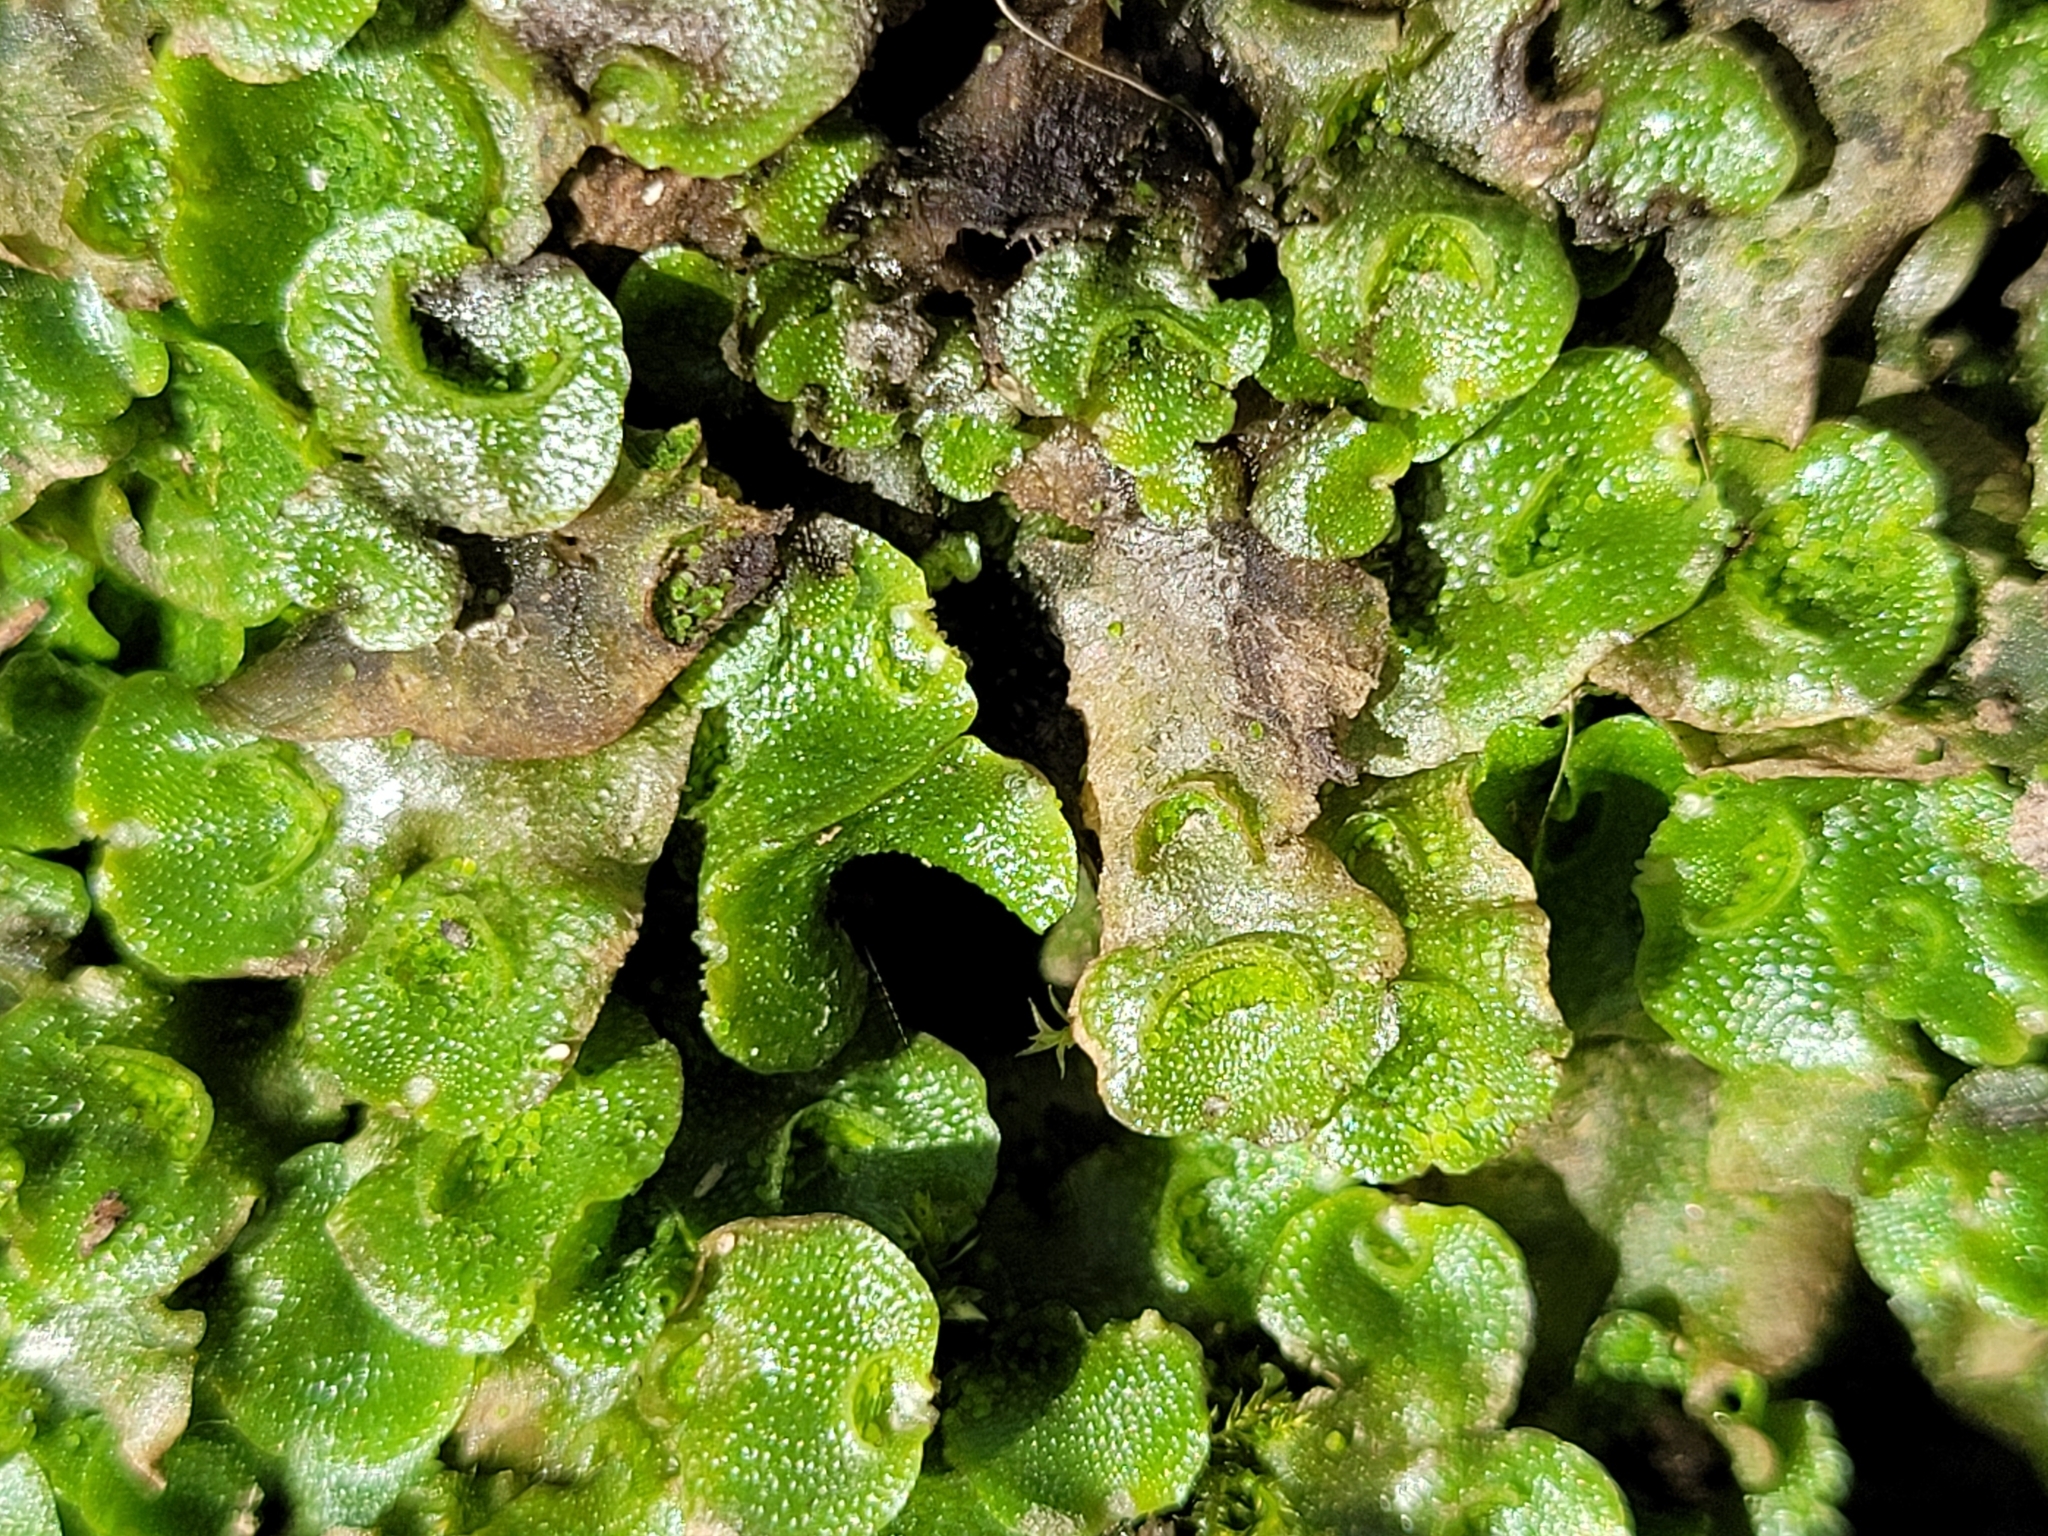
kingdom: Plantae
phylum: Marchantiophyta
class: Marchantiopsida
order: Lunulariales
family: Lunulariaceae
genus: Lunularia
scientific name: Lunularia cruciata
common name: Crescent-cup liverwort
